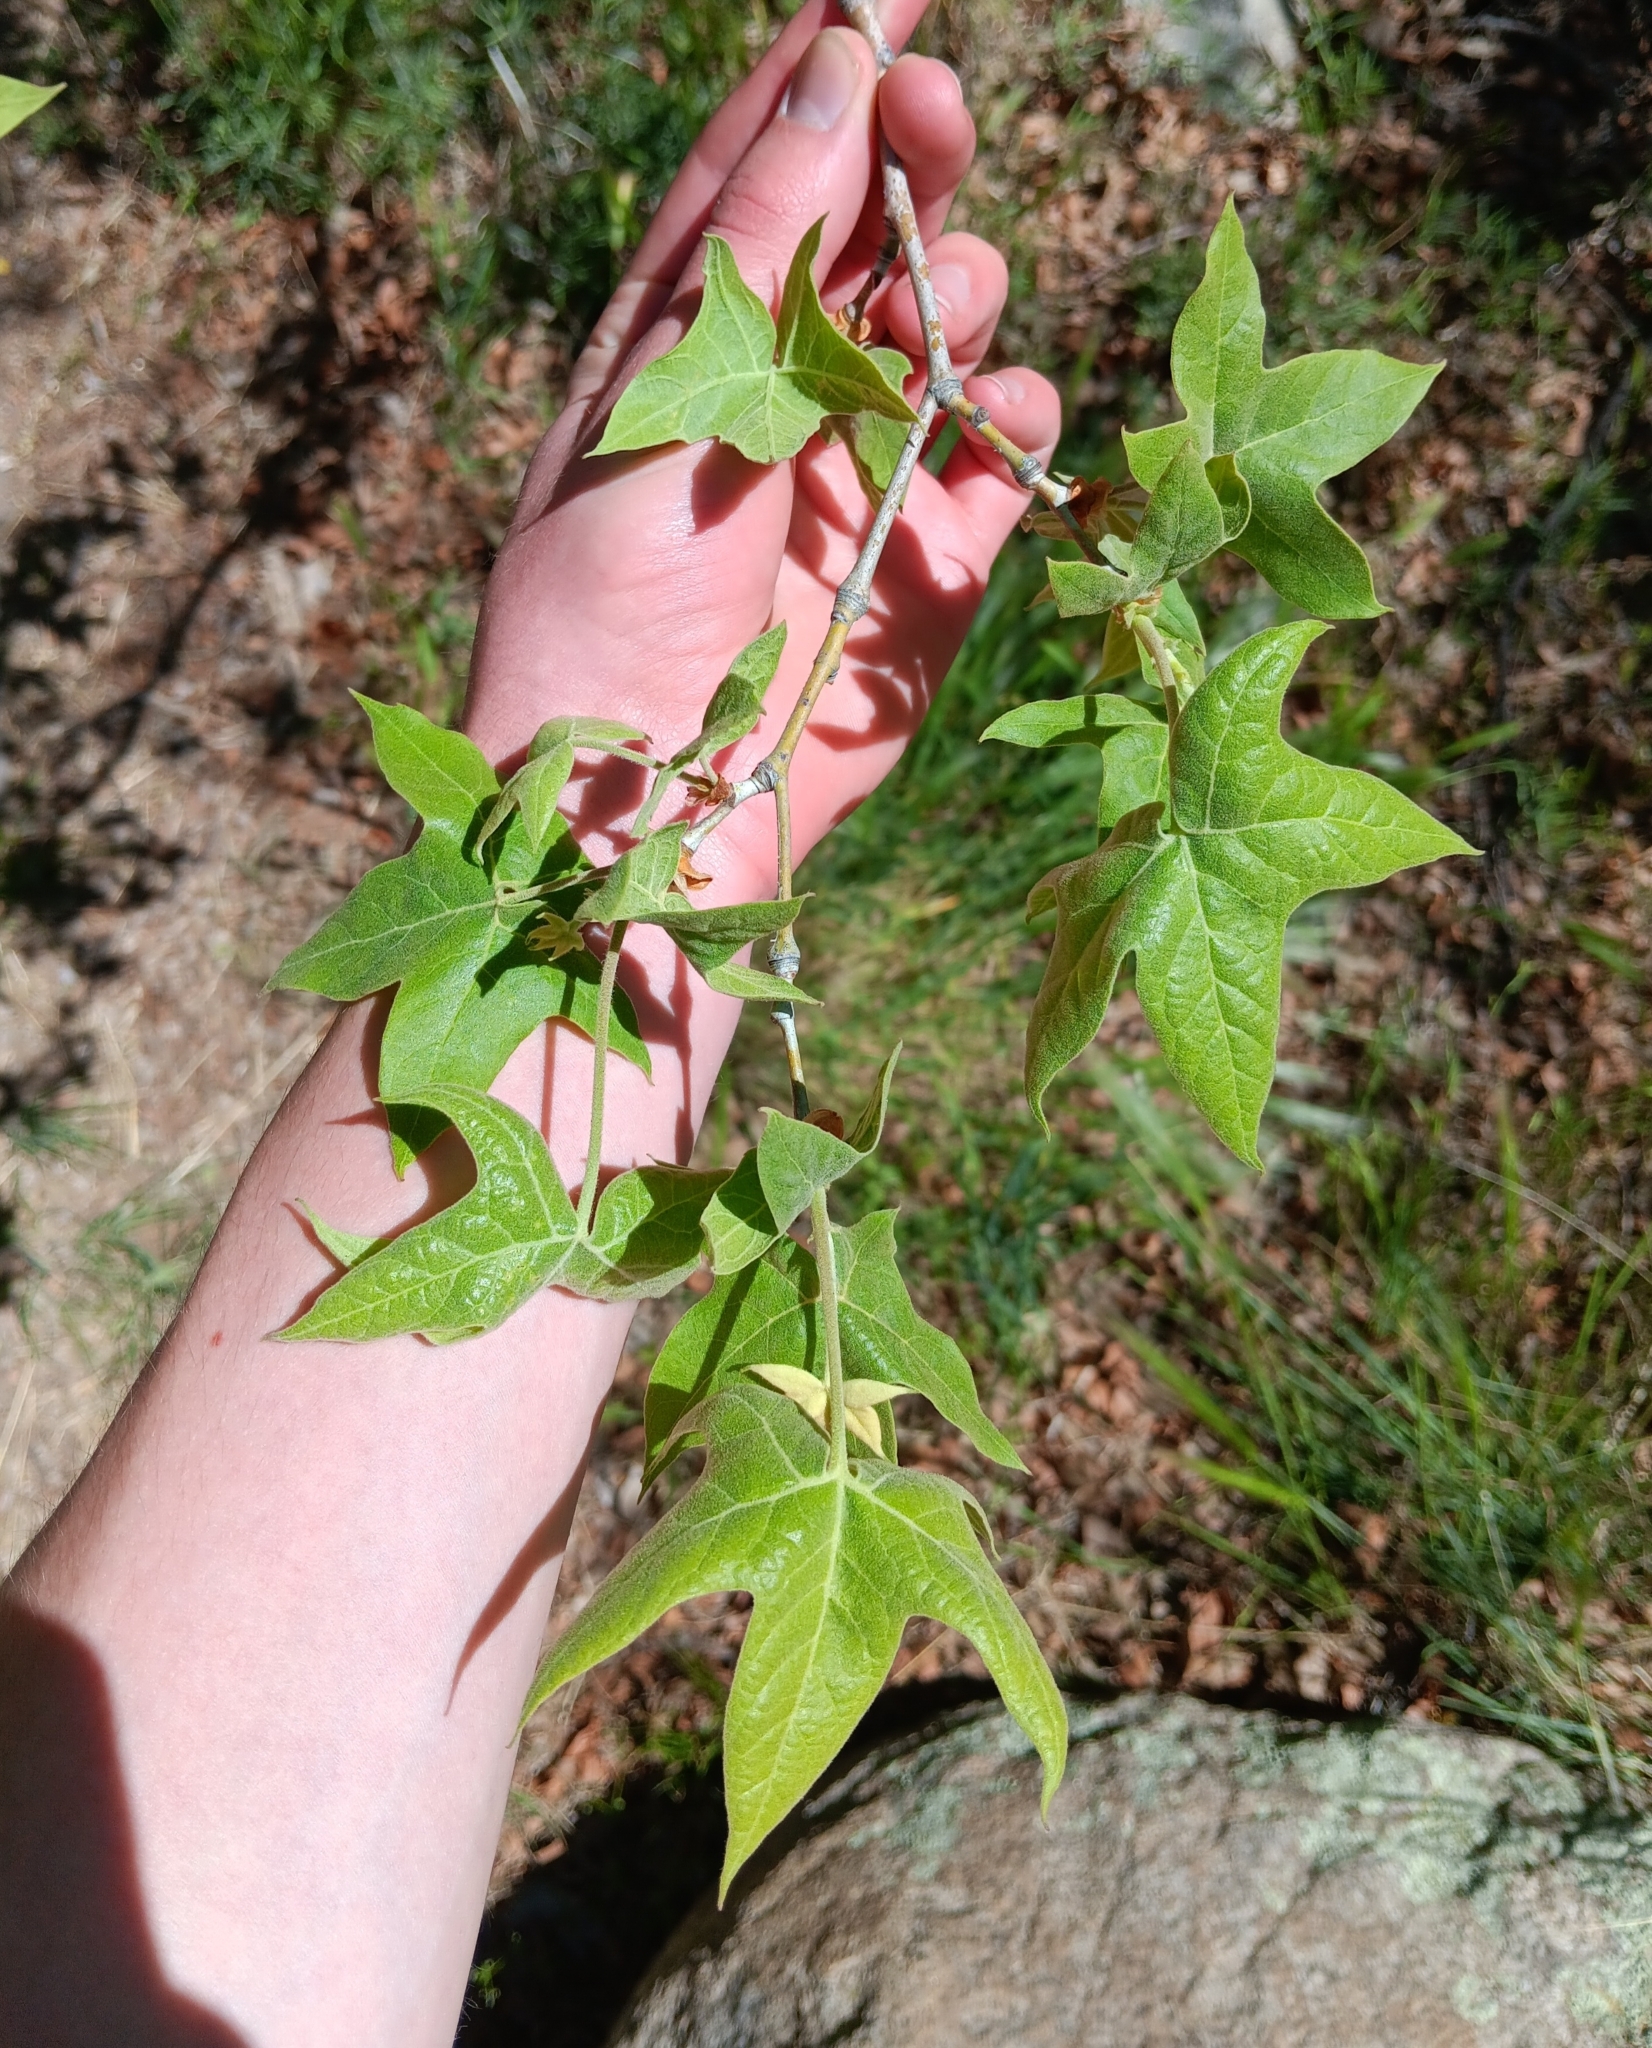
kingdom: Plantae
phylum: Tracheophyta
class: Magnoliopsida
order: Proteales
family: Platanaceae
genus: Platanus
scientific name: Platanus wrightii
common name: Arizona sycamore
